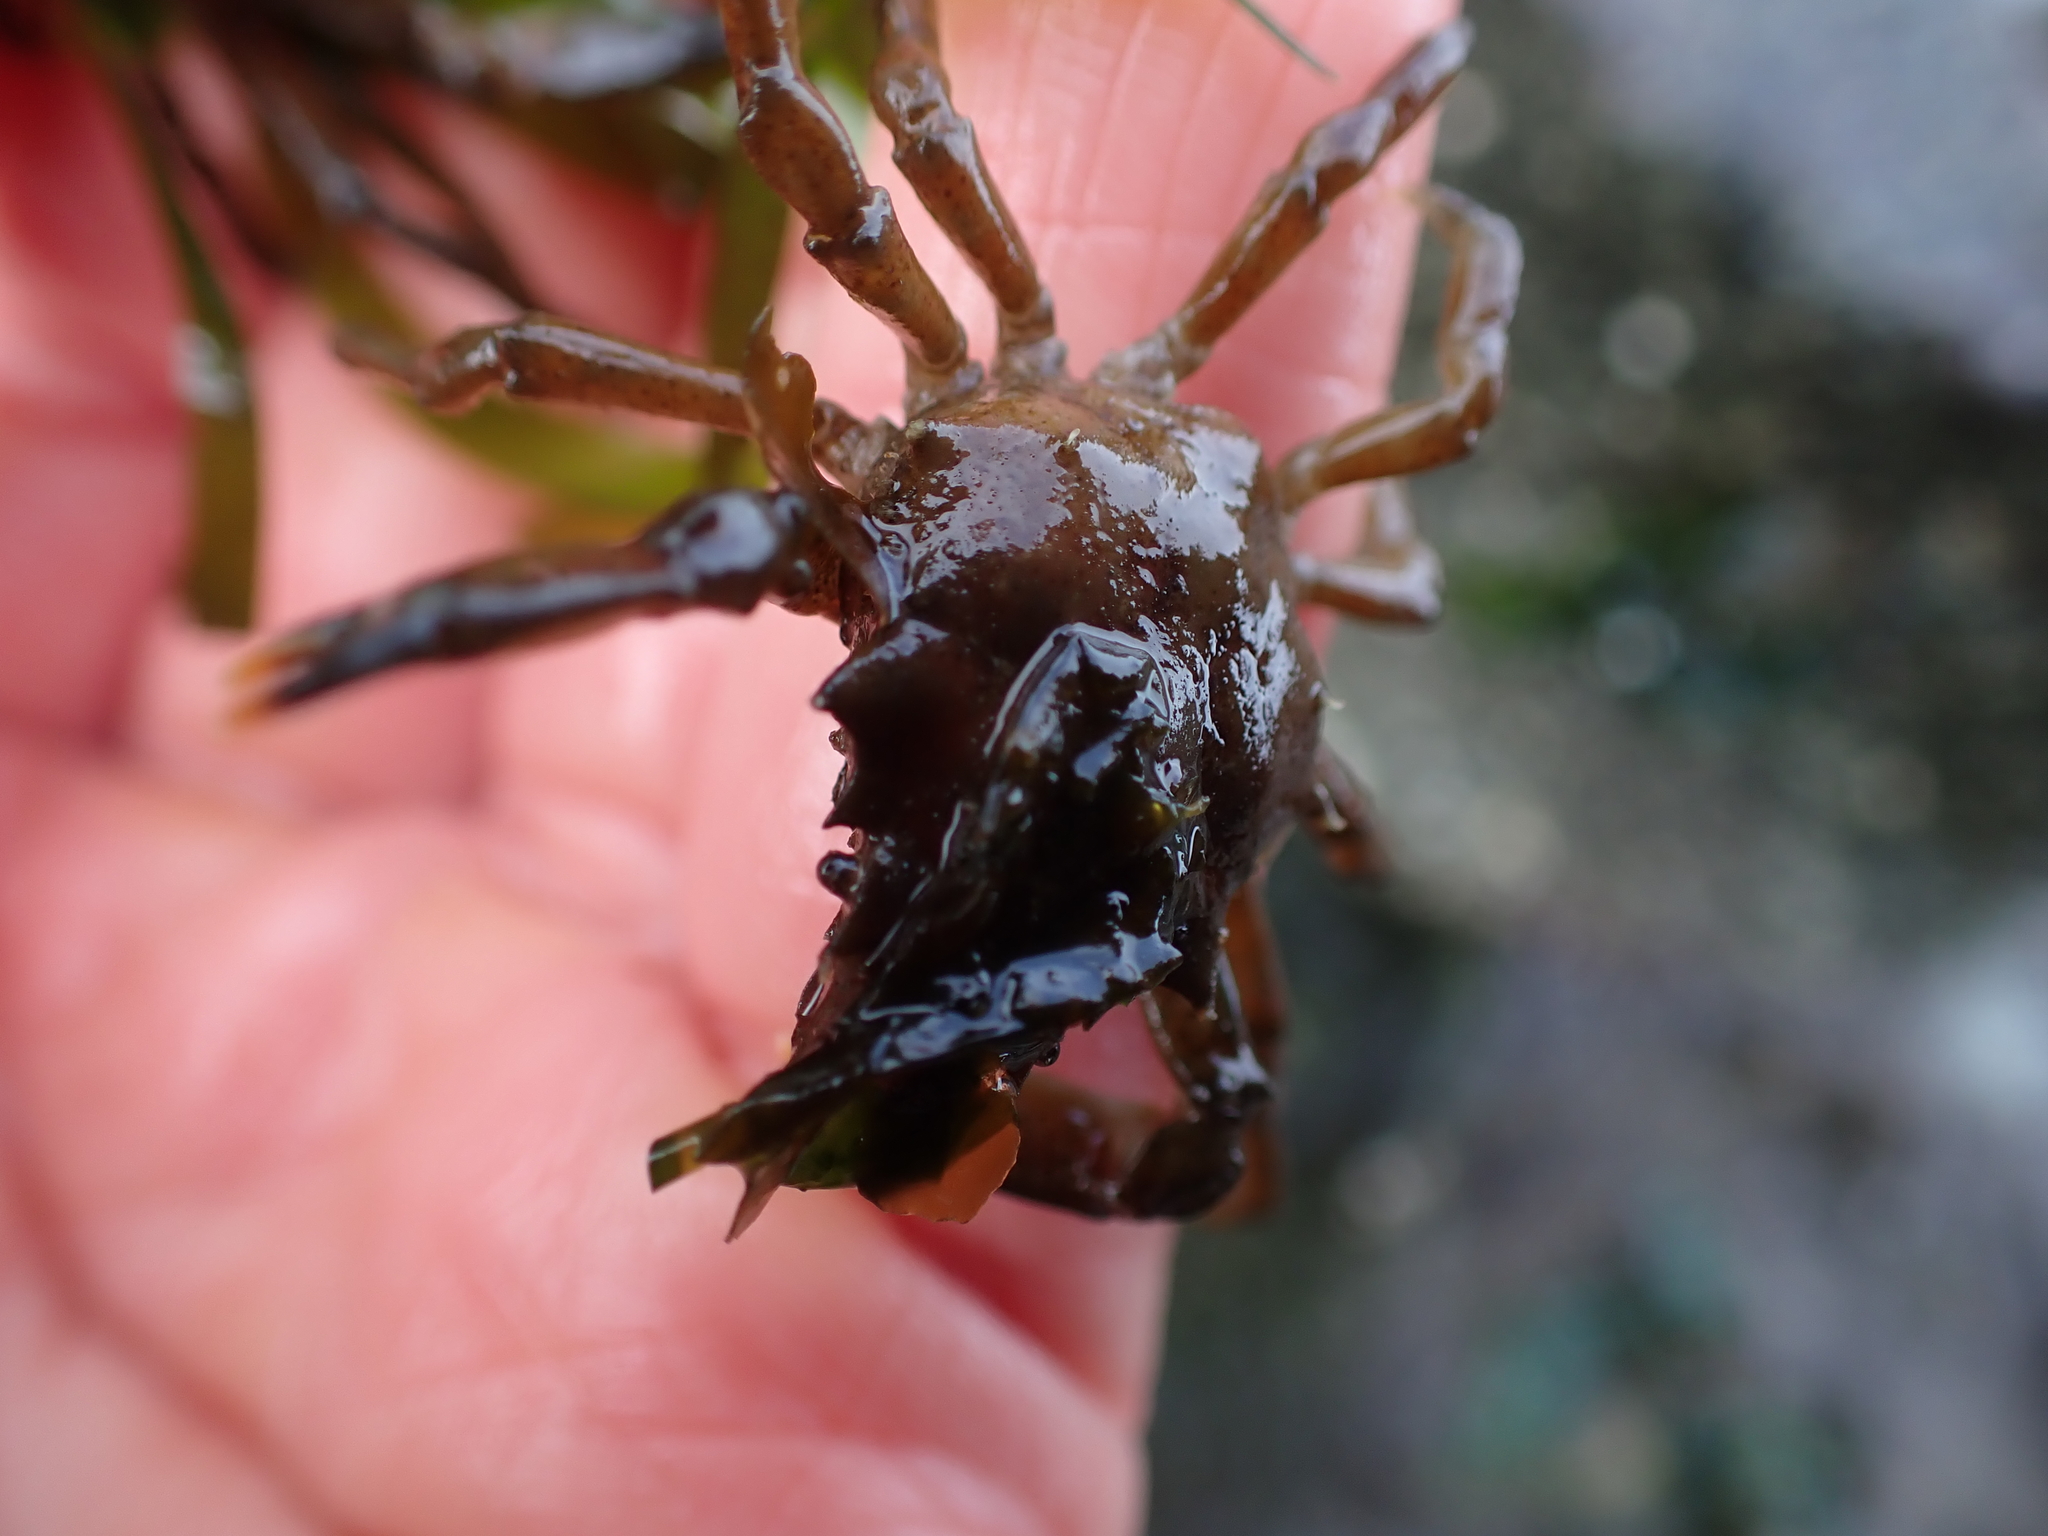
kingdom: Animalia
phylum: Arthropoda
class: Malacostraca
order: Decapoda
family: Epialtidae
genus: Pugettia
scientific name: Pugettia gracilis
